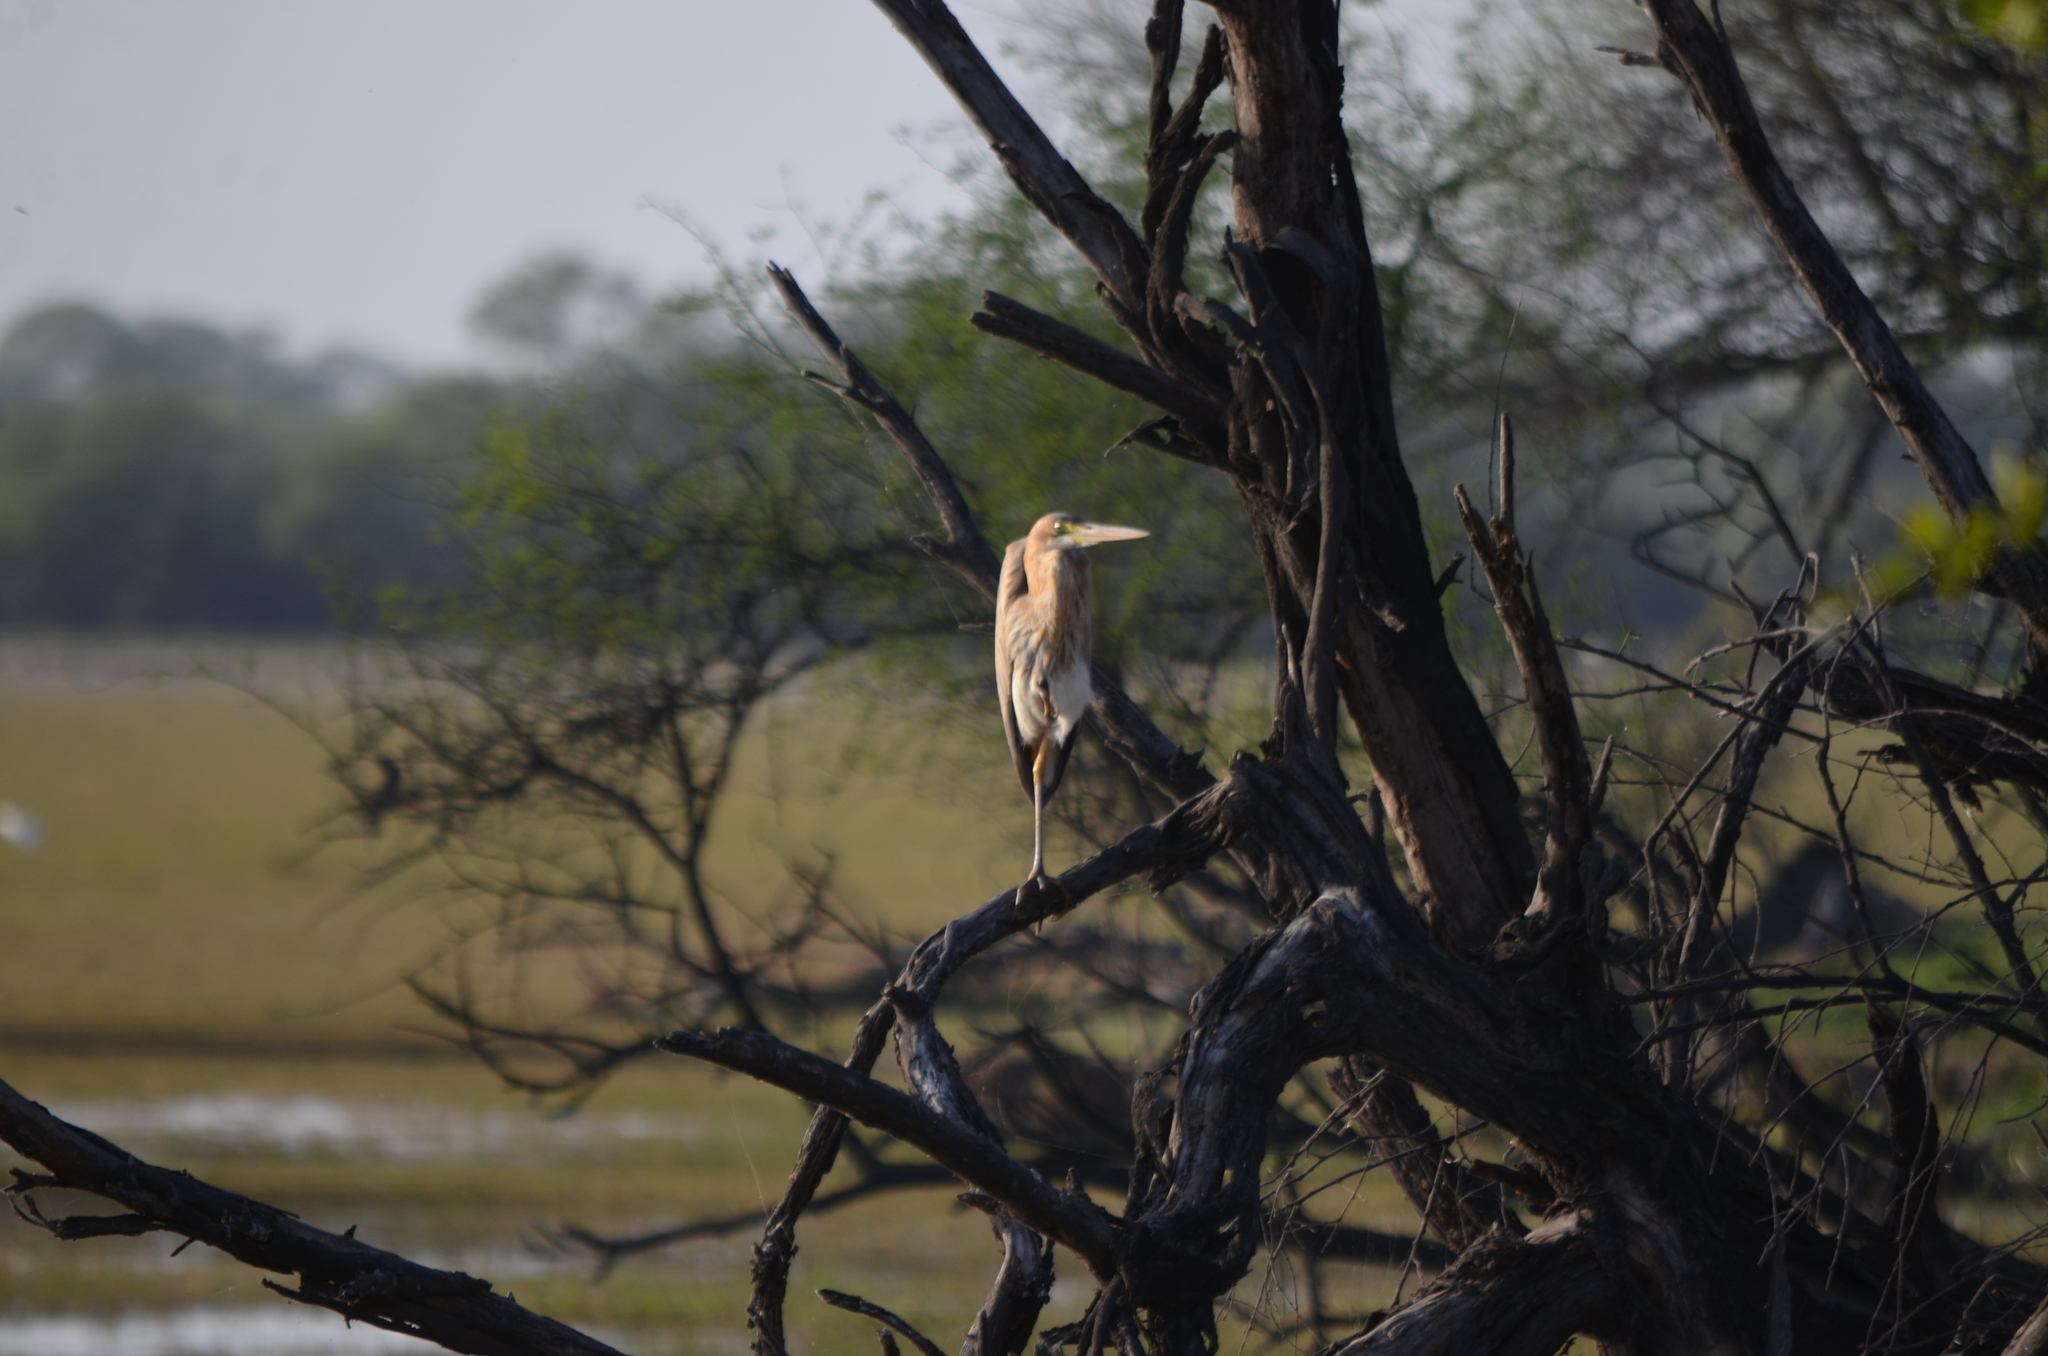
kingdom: Animalia
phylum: Chordata
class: Aves
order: Pelecaniformes
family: Ardeidae
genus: Ardea
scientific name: Ardea purpurea
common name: Purple heron
